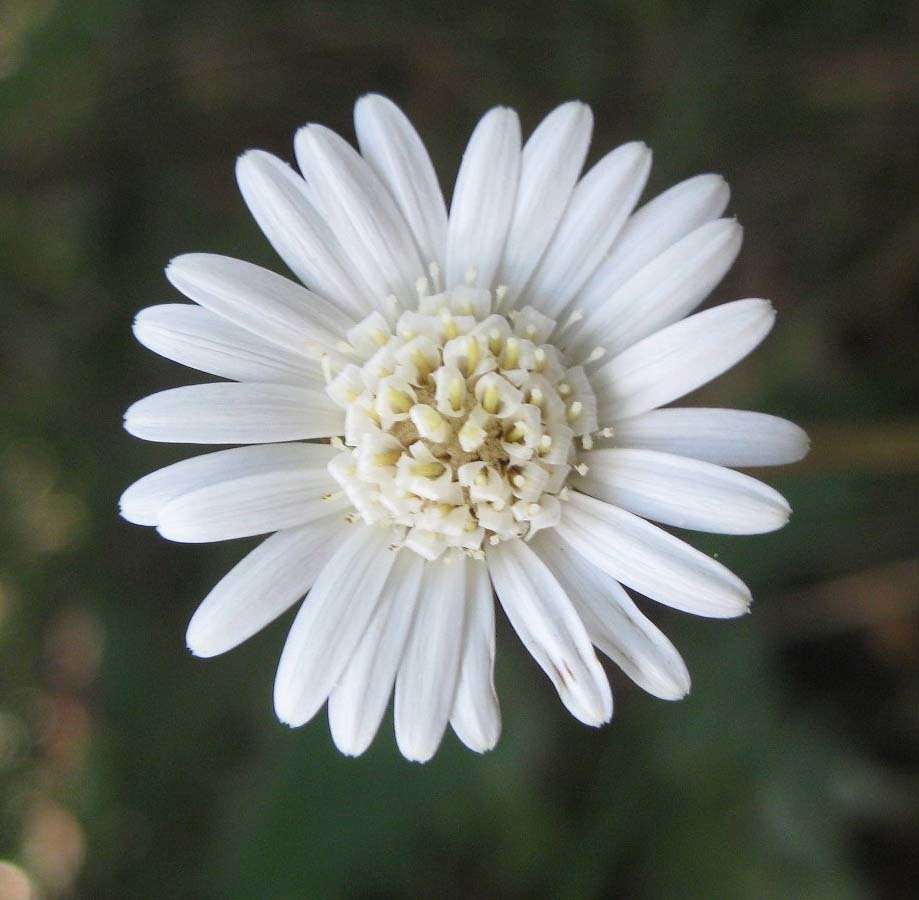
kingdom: Plantae
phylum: Tracheophyta
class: Magnoliopsida
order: Asterales
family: Asteraceae
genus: Piloselloides
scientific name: Piloselloides cordata
